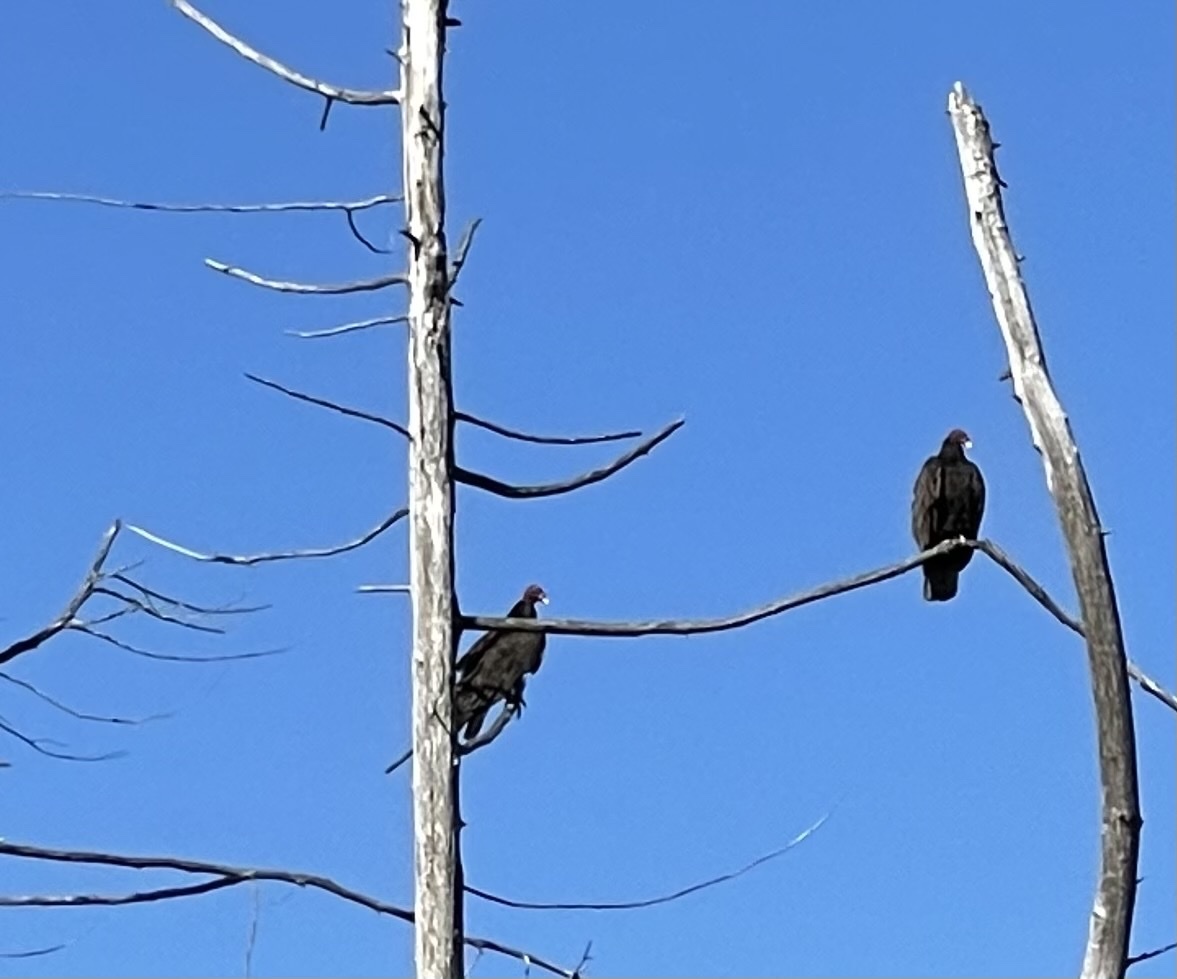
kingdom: Animalia
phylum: Chordata
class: Aves
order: Accipitriformes
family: Cathartidae
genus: Cathartes
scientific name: Cathartes aura
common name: Turkey vulture
